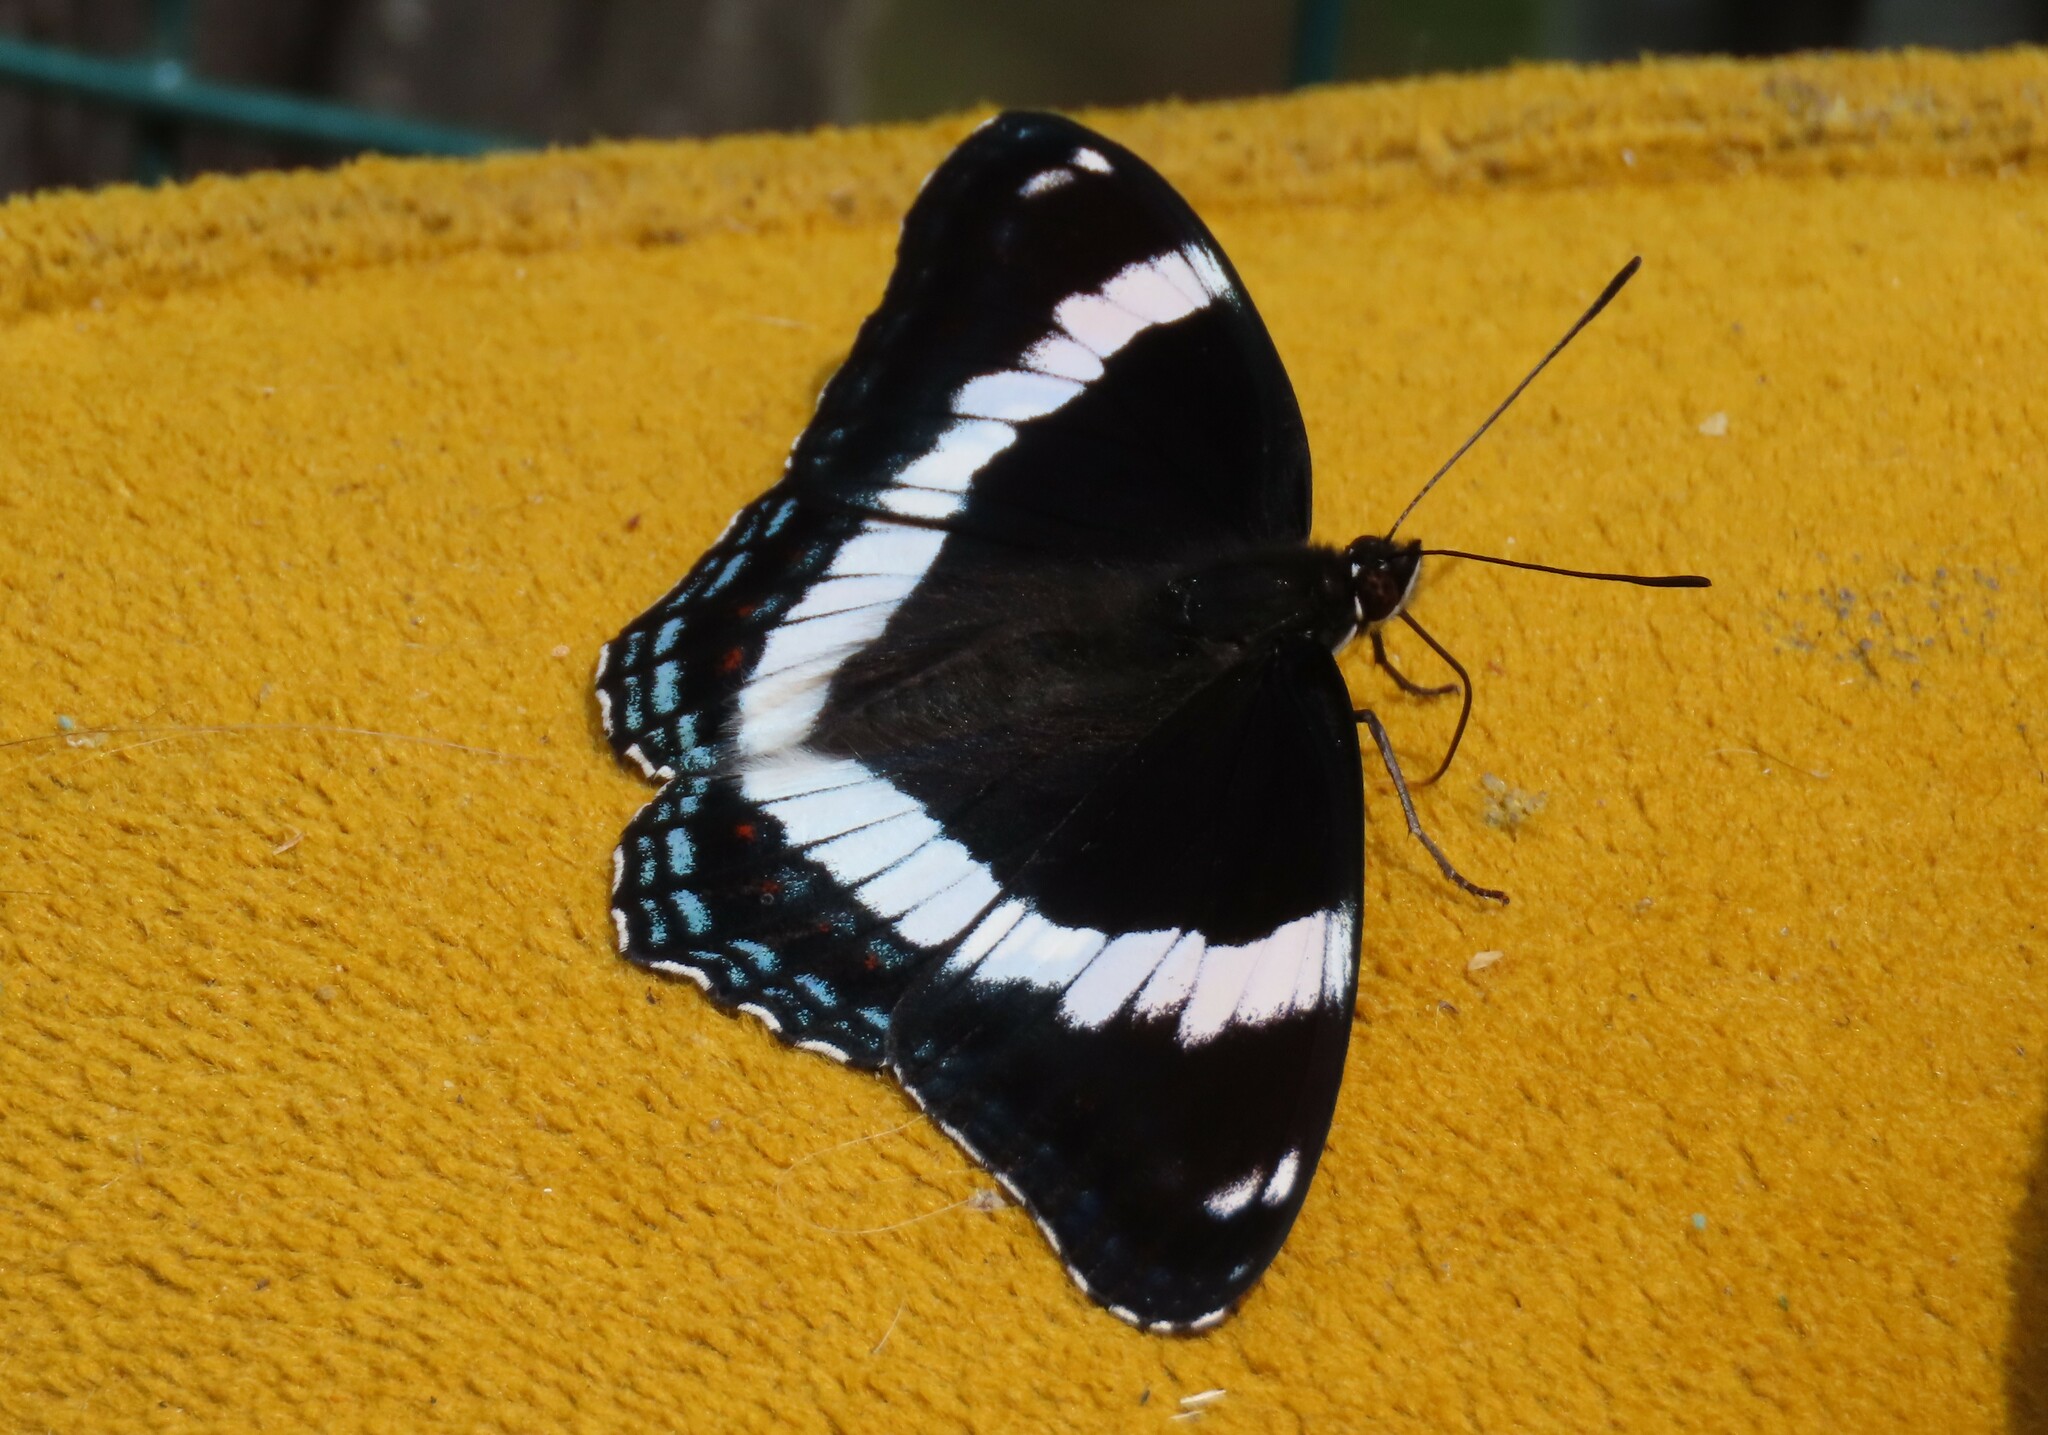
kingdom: Animalia
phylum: Arthropoda
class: Insecta
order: Lepidoptera
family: Nymphalidae
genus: Limenitis
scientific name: Limenitis arthemis
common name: Red-spotted admiral
